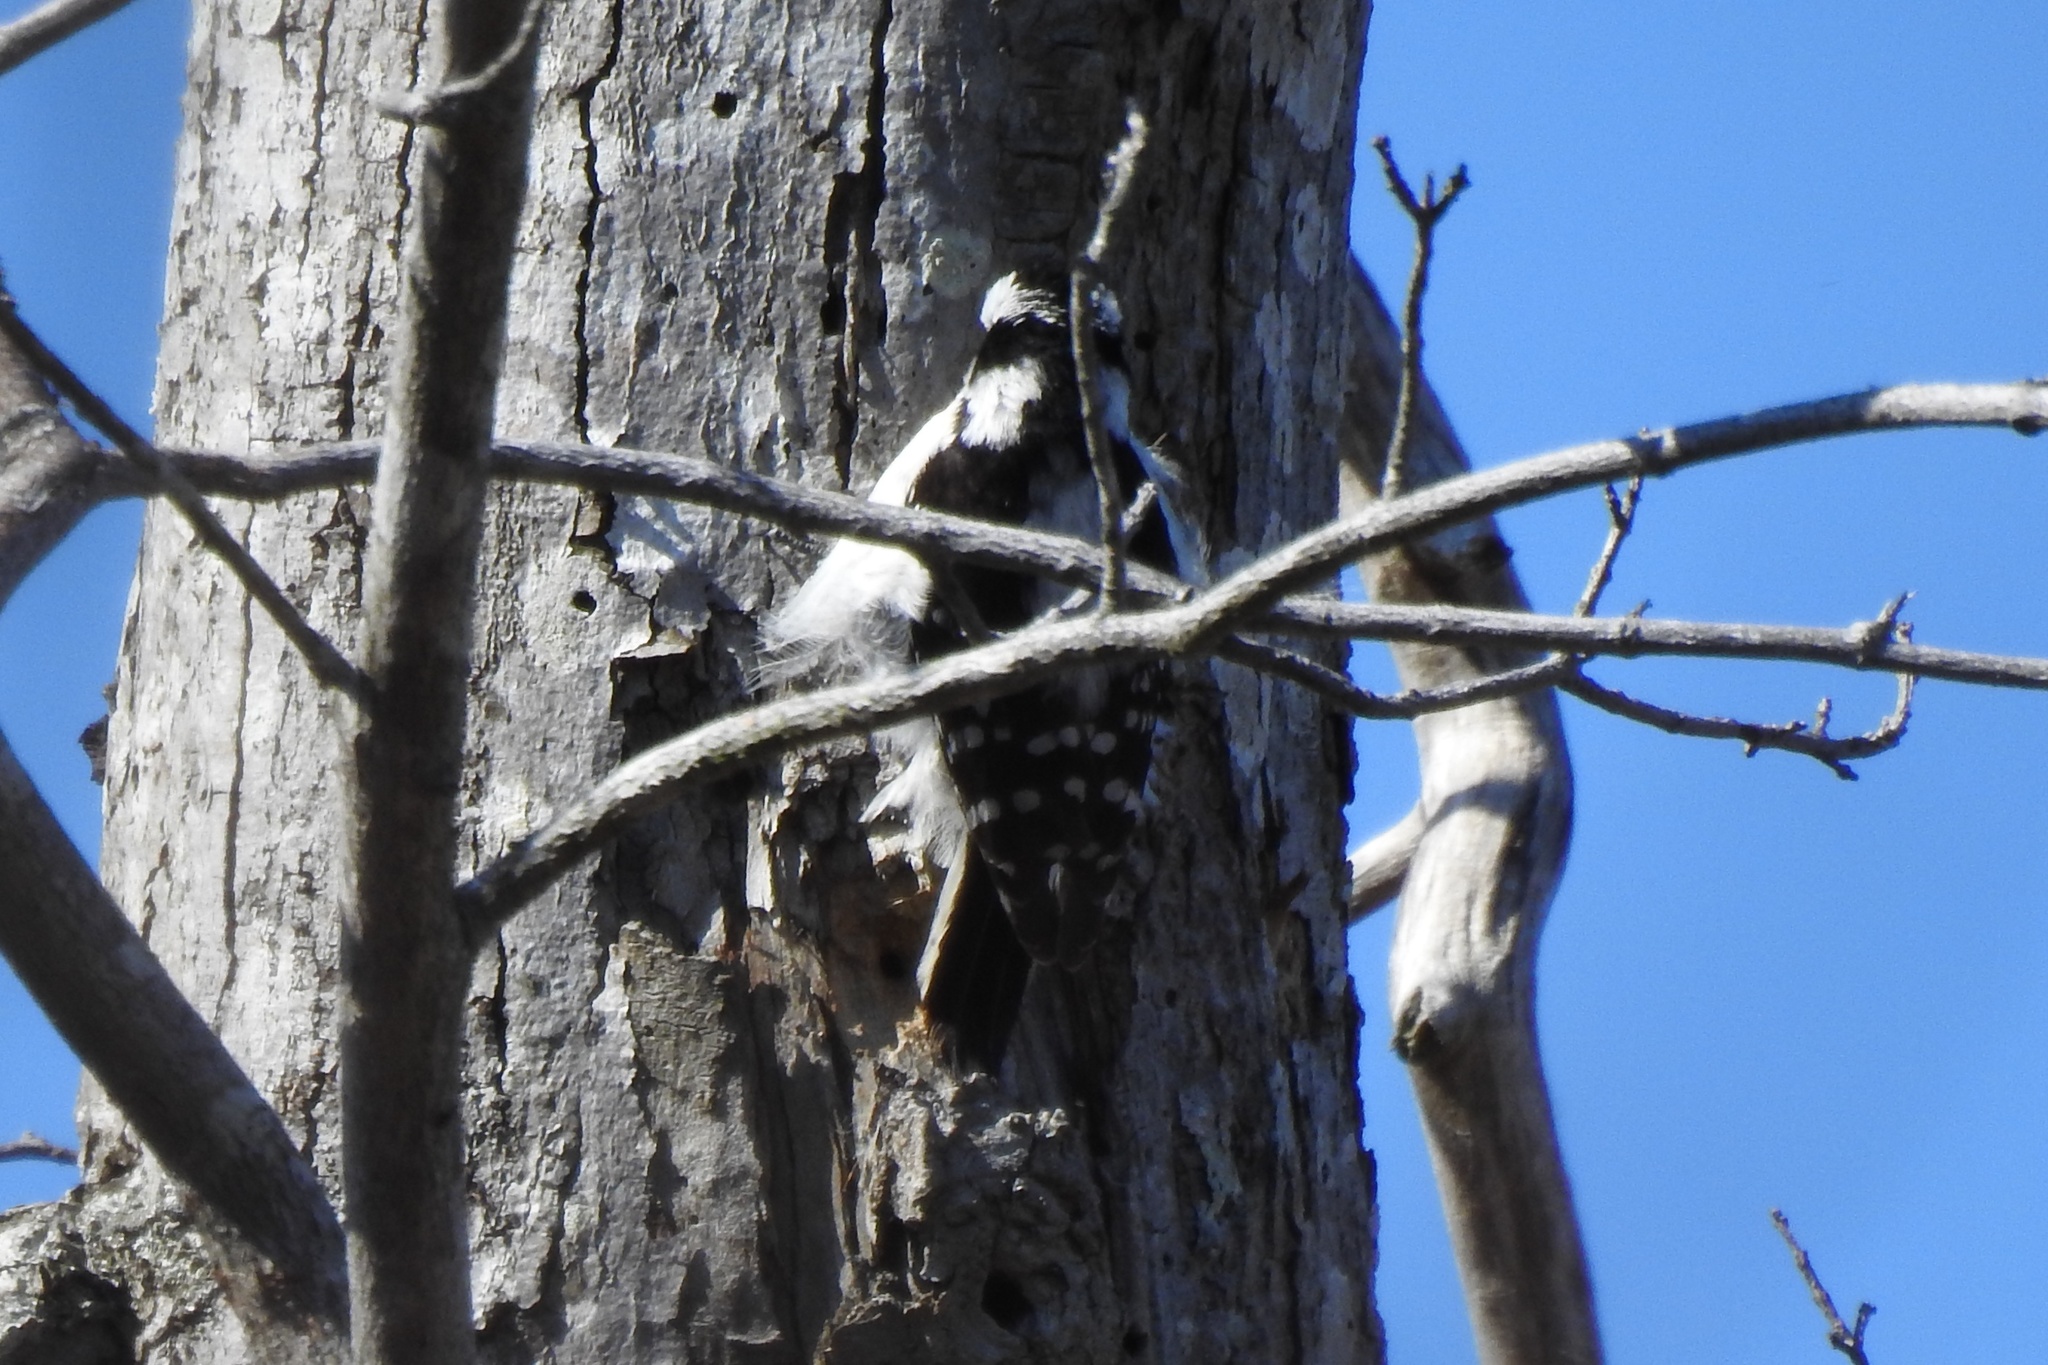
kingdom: Animalia
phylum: Chordata
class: Aves
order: Piciformes
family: Picidae
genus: Dryobates
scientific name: Dryobates pubescens
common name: Downy woodpecker
